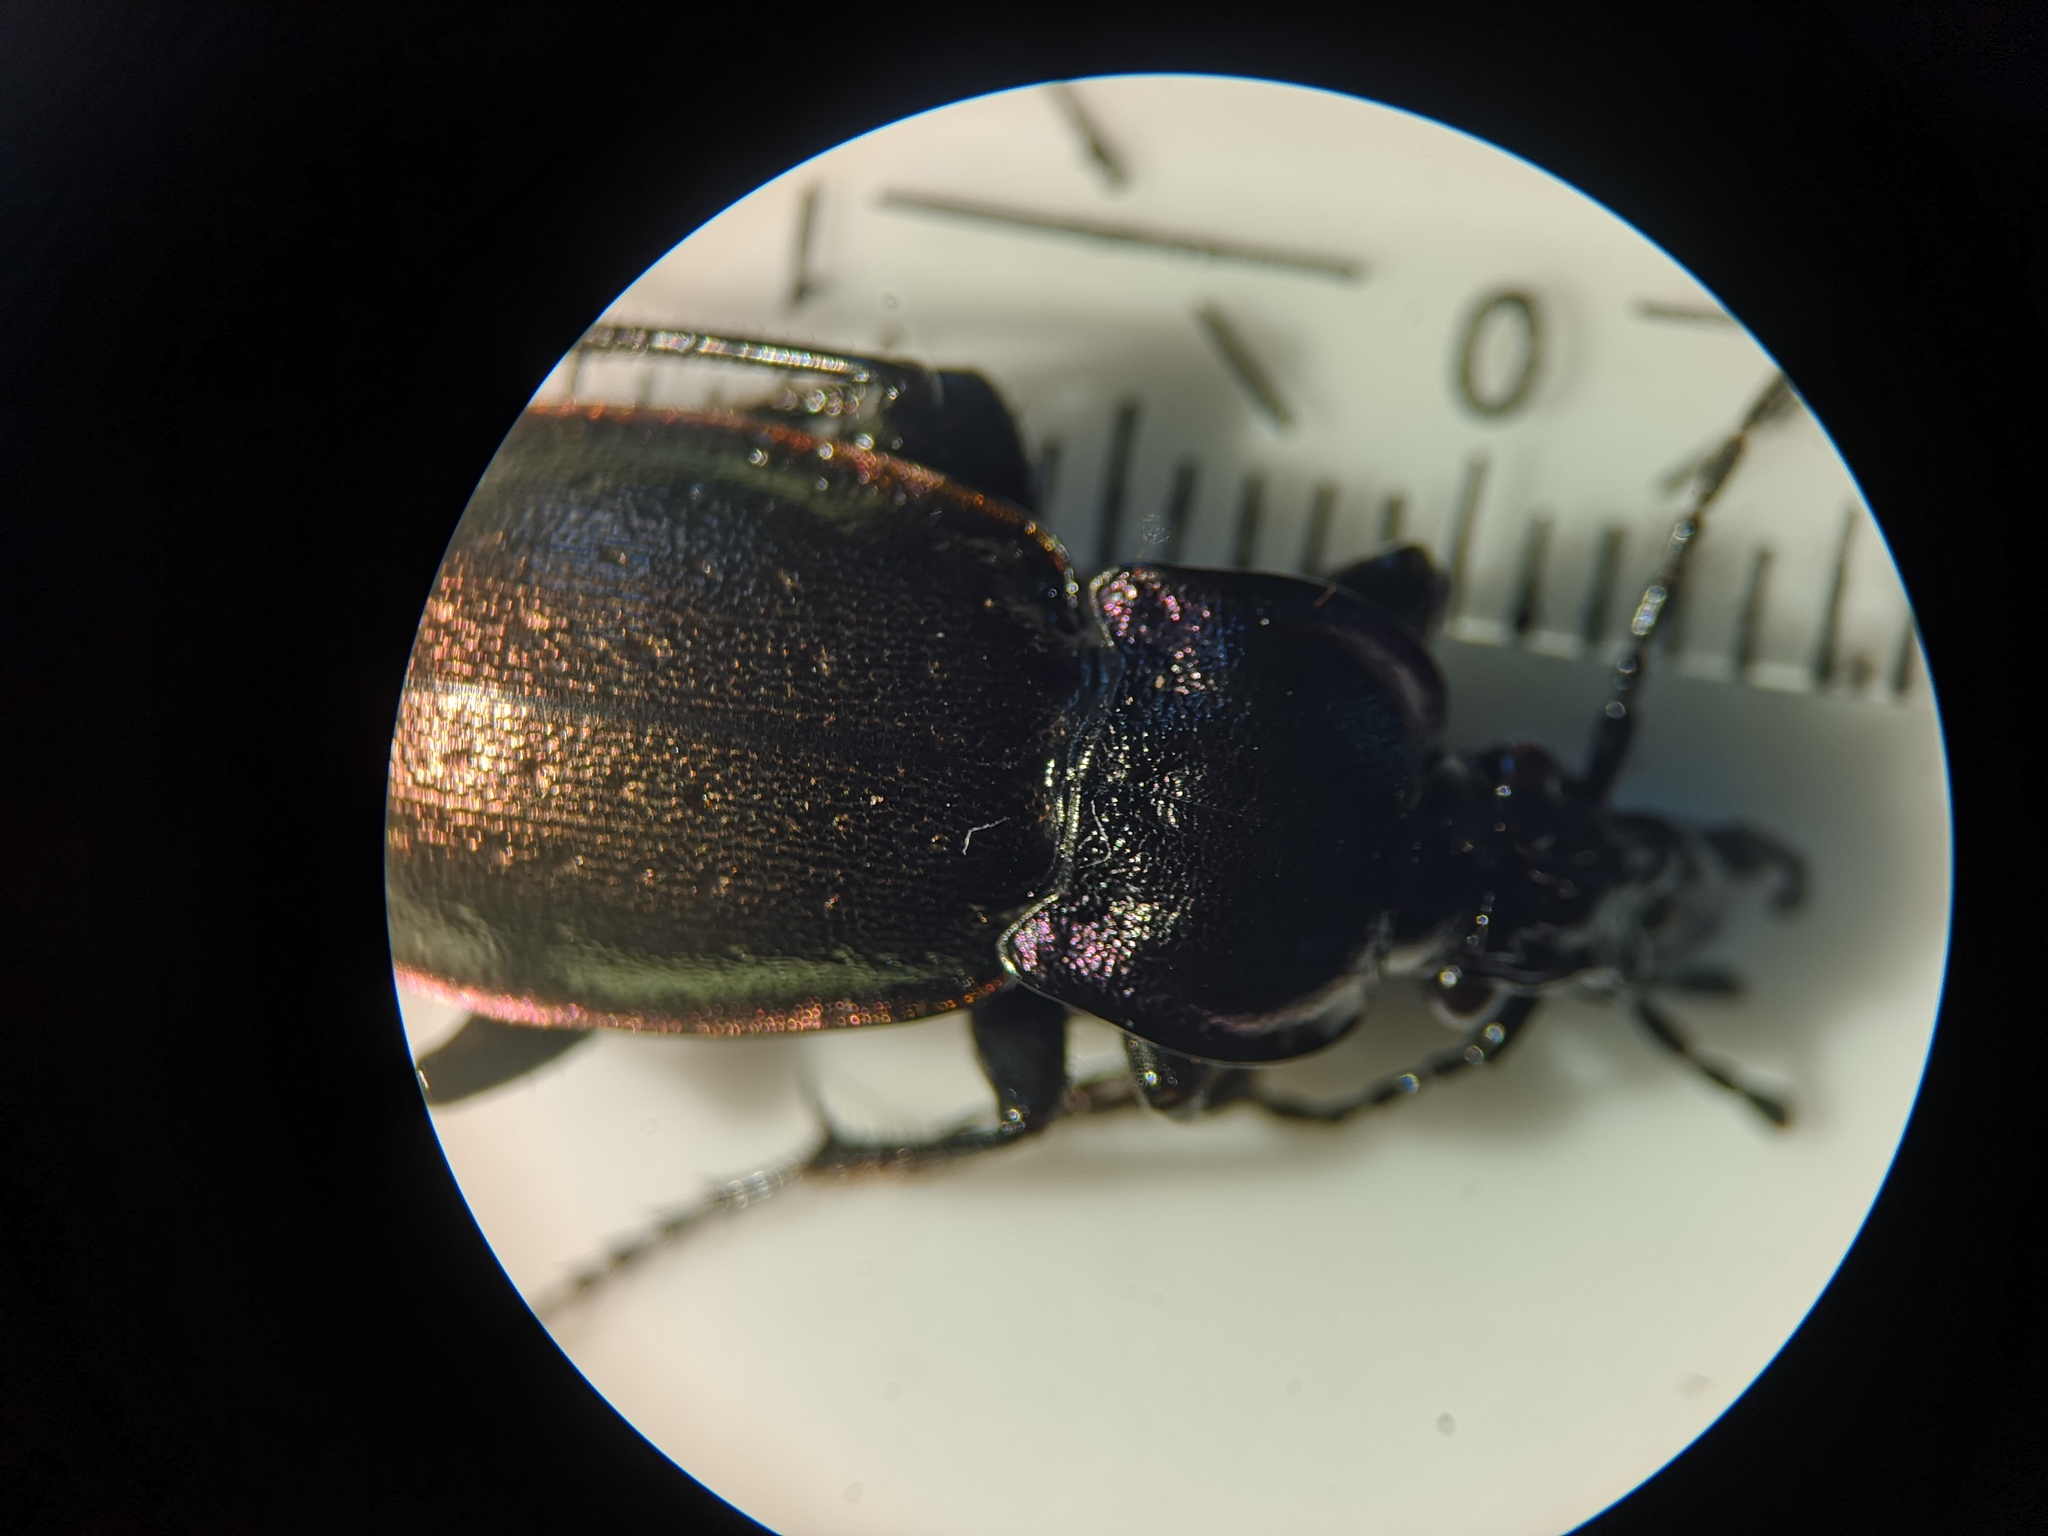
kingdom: Animalia
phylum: Arthropoda
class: Insecta
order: Coleoptera
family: Carabidae
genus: Carabus
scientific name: Carabus nemoralis
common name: European ground beetle
